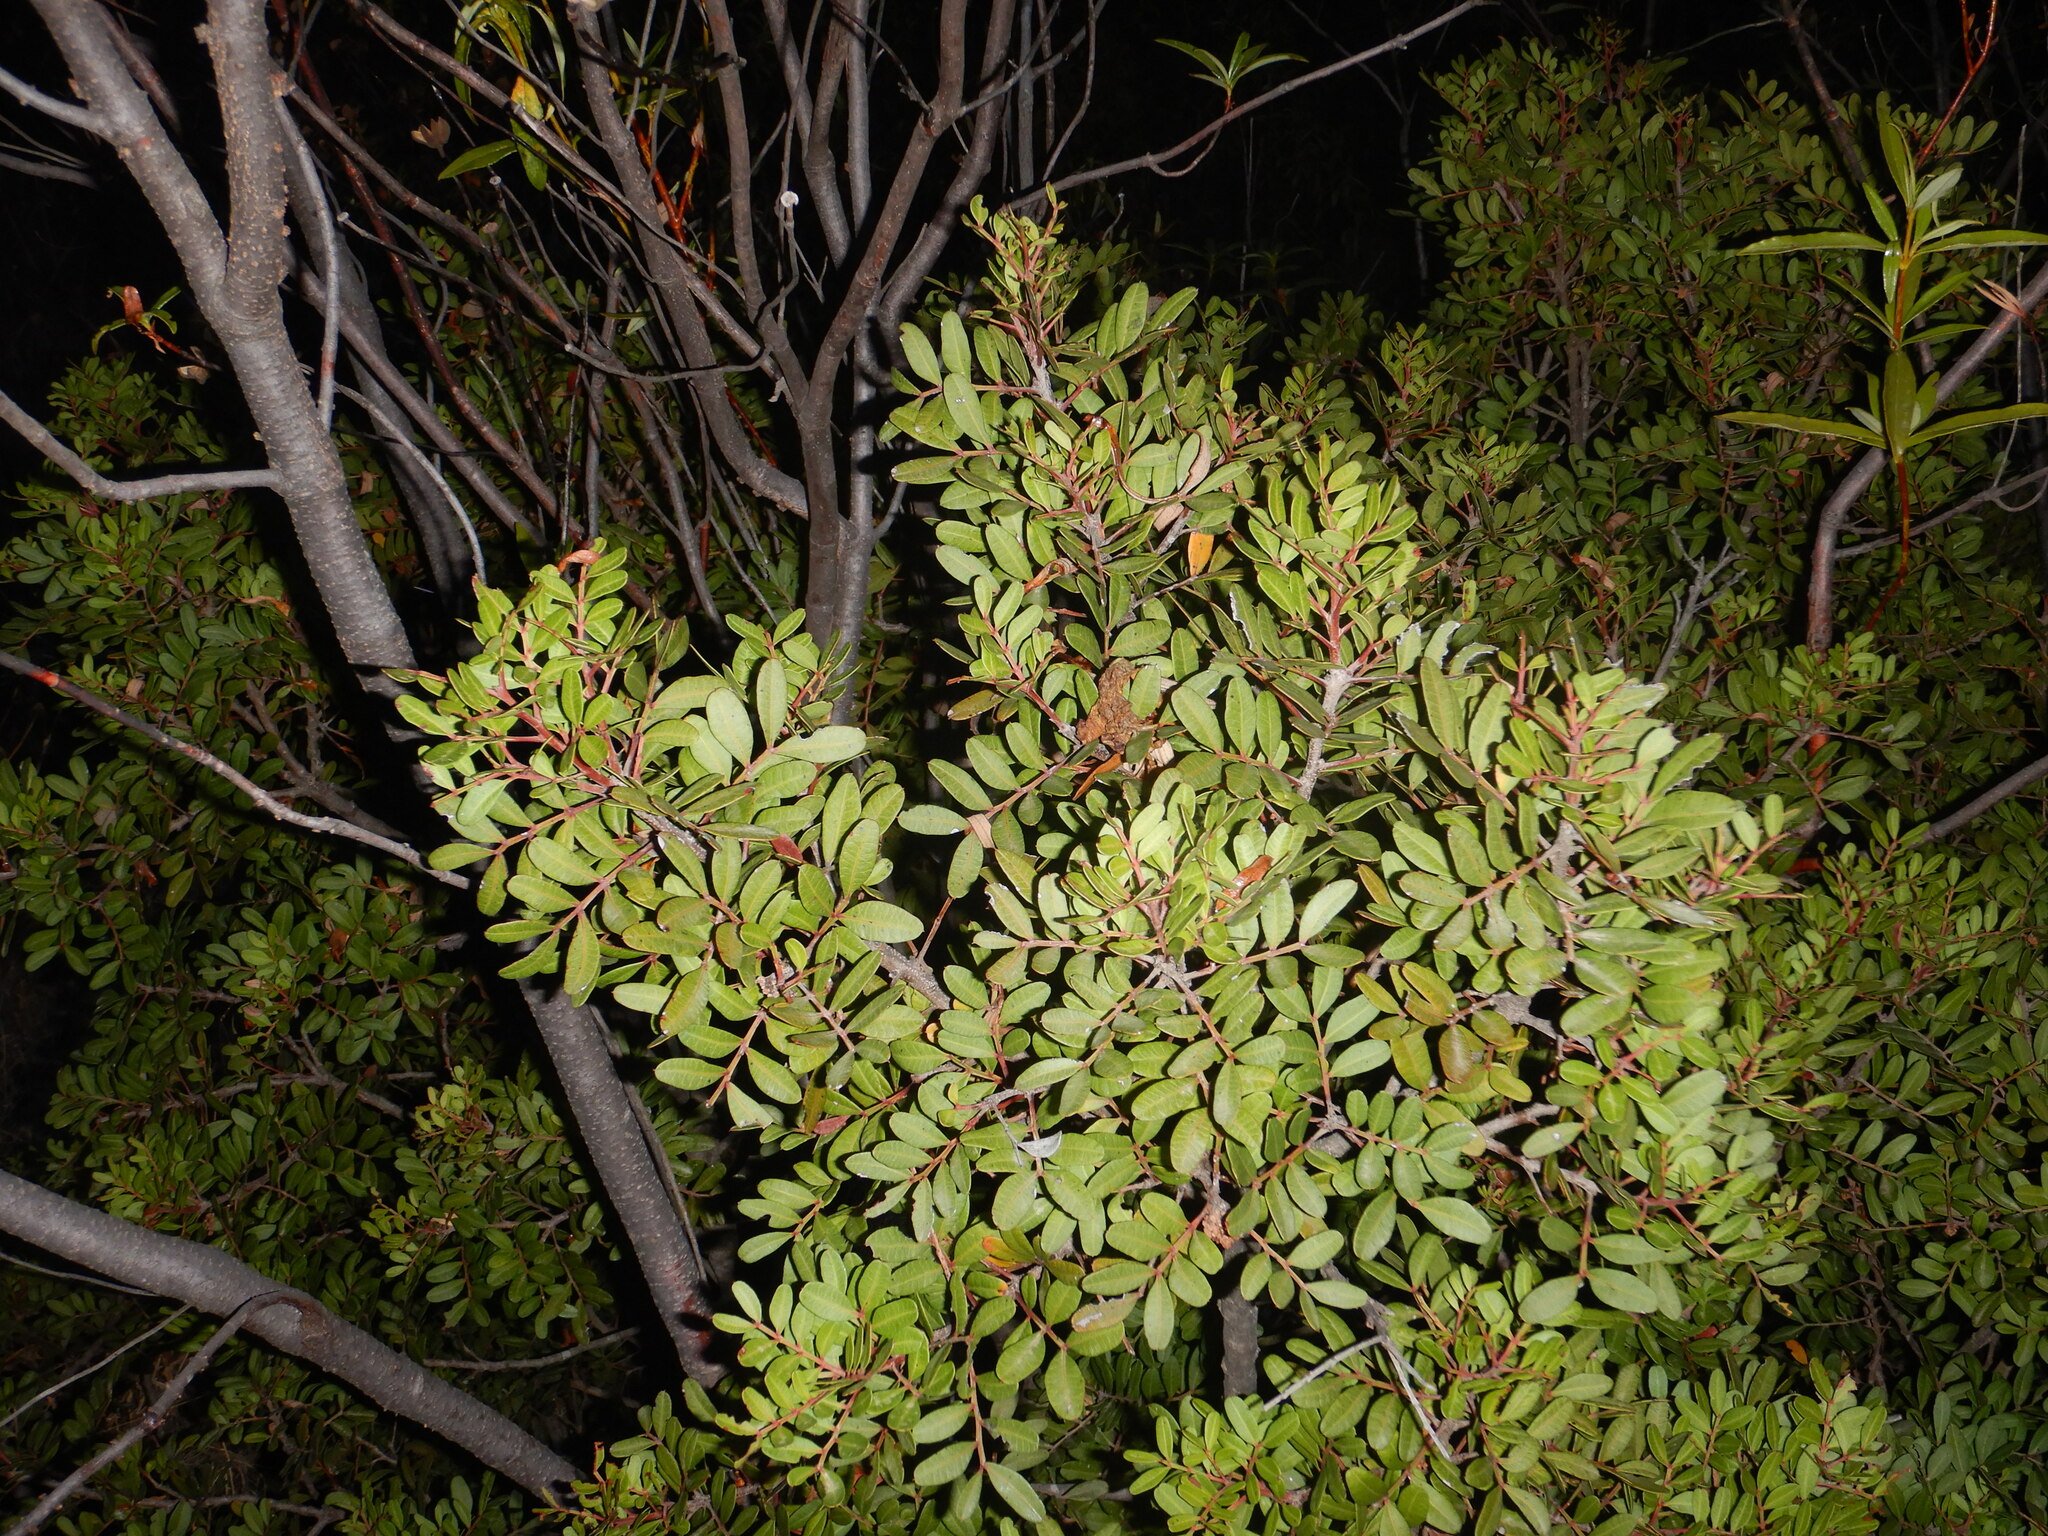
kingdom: Plantae
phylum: Tracheophyta
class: Magnoliopsida
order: Sapindales
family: Anacardiaceae
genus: Pistacia
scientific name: Pistacia lentiscus
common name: Lentisk
